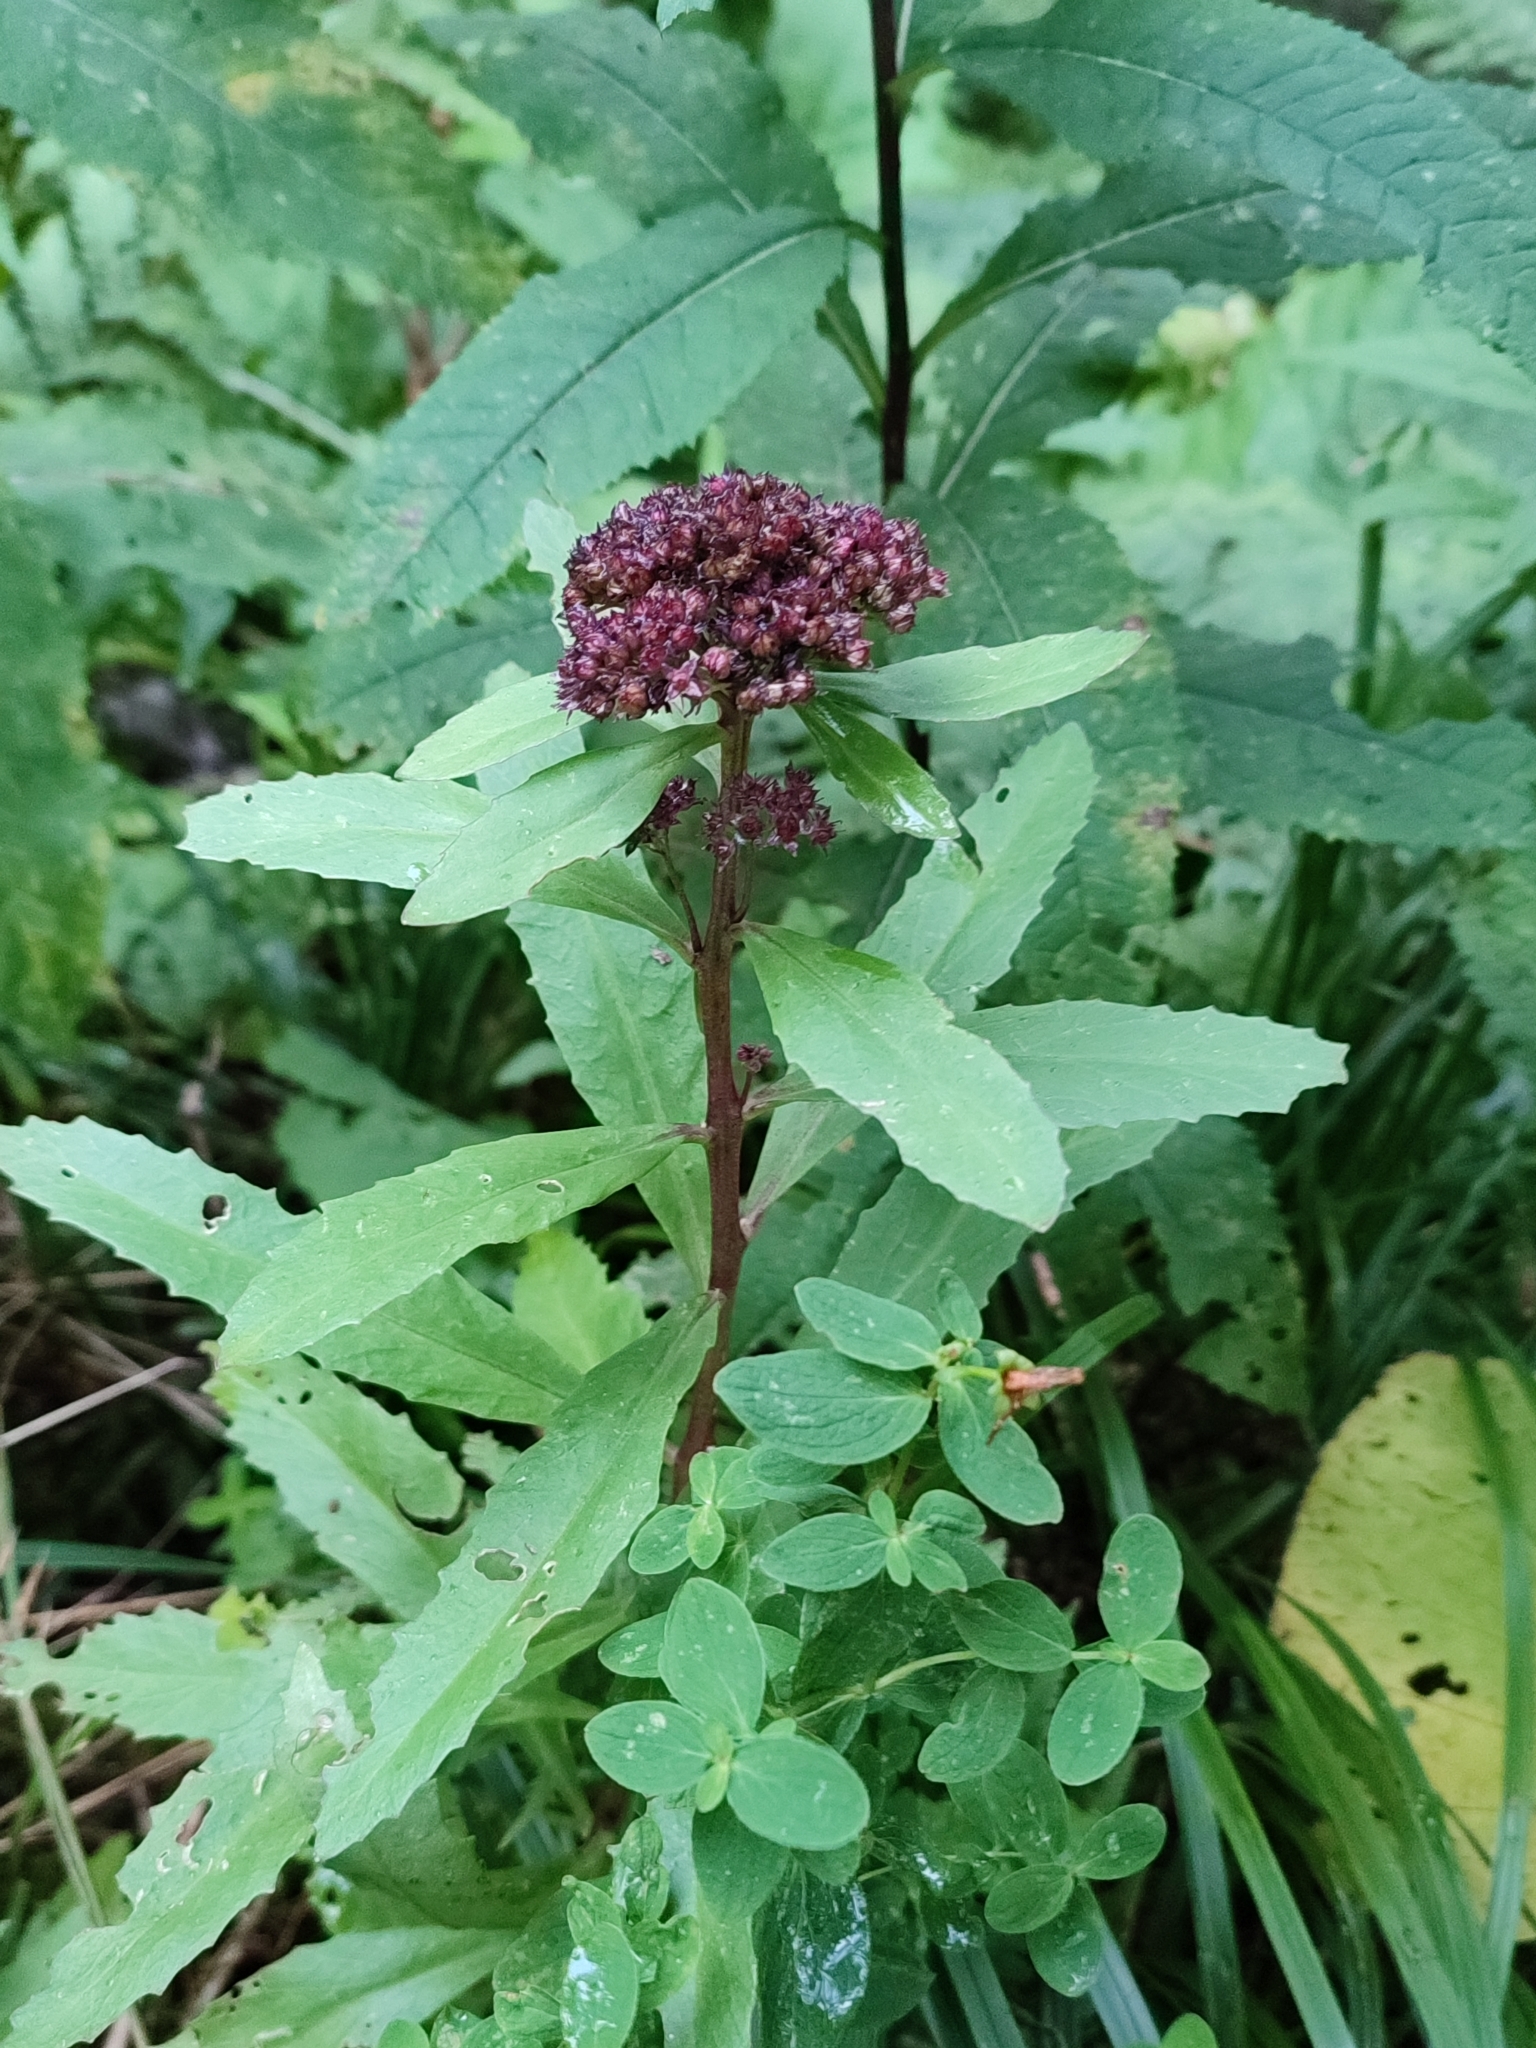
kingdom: Plantae
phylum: Tracheophyta
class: Magnoliopsida
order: Saxifragales
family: Crassulaceae
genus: Hylotelephium
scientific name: Hylotelephium vulgare
